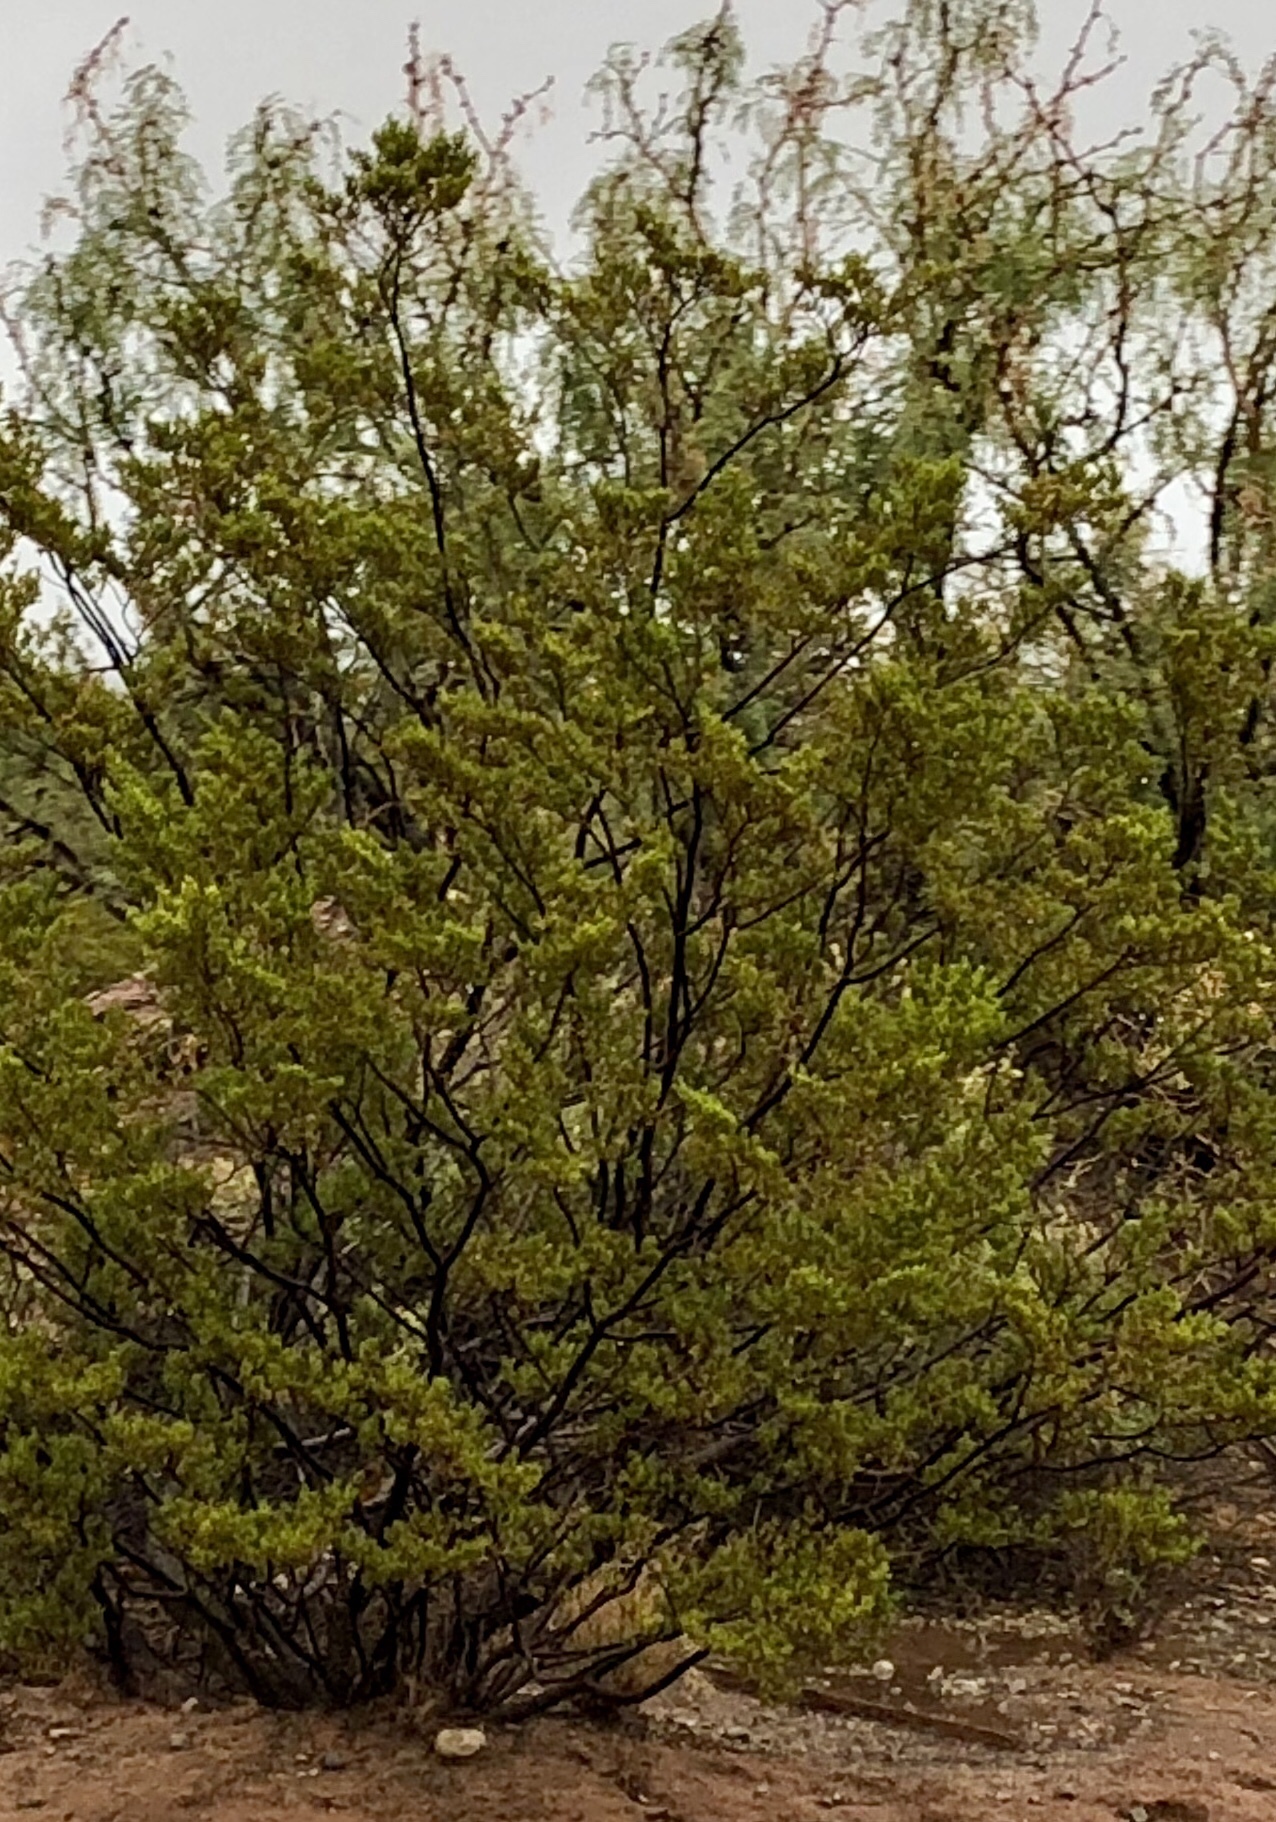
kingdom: Plantae
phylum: Tracheophyta
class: Magnoliopsida
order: Zygophyllales
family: Zygophyllaceae
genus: Larrea
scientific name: Larrea tridentata
